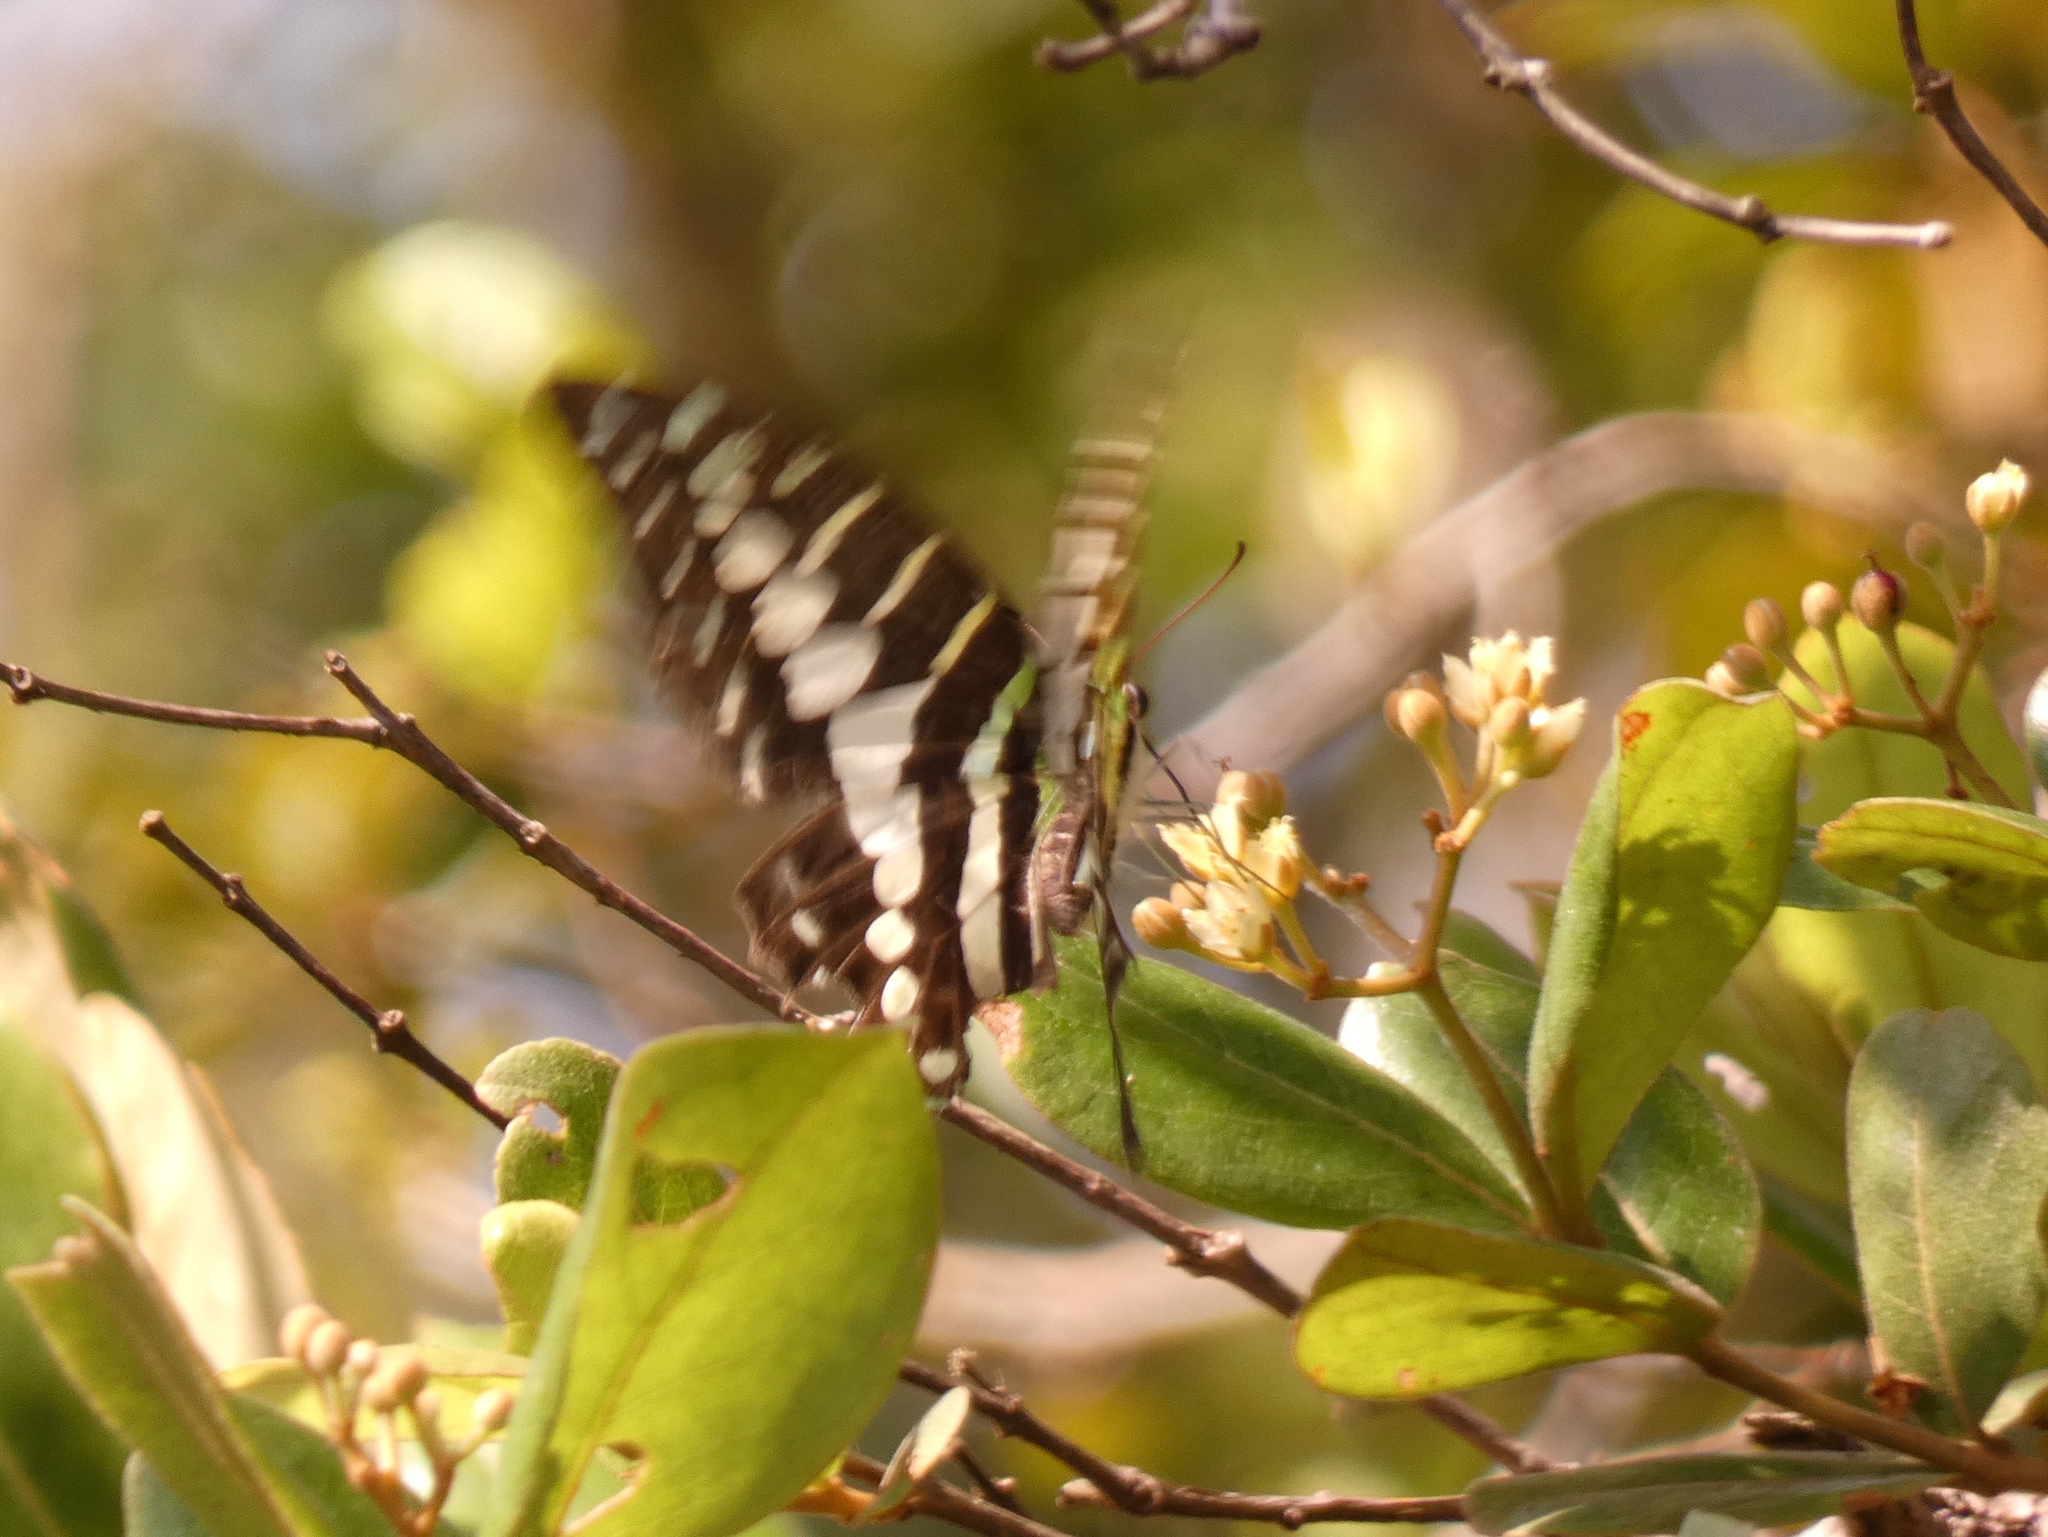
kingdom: Animalia
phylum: Arthropoda
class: Insecta
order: Lepidoptera
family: Papilionidae
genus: Graphium
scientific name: Graphium policenes
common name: Common swordtail
